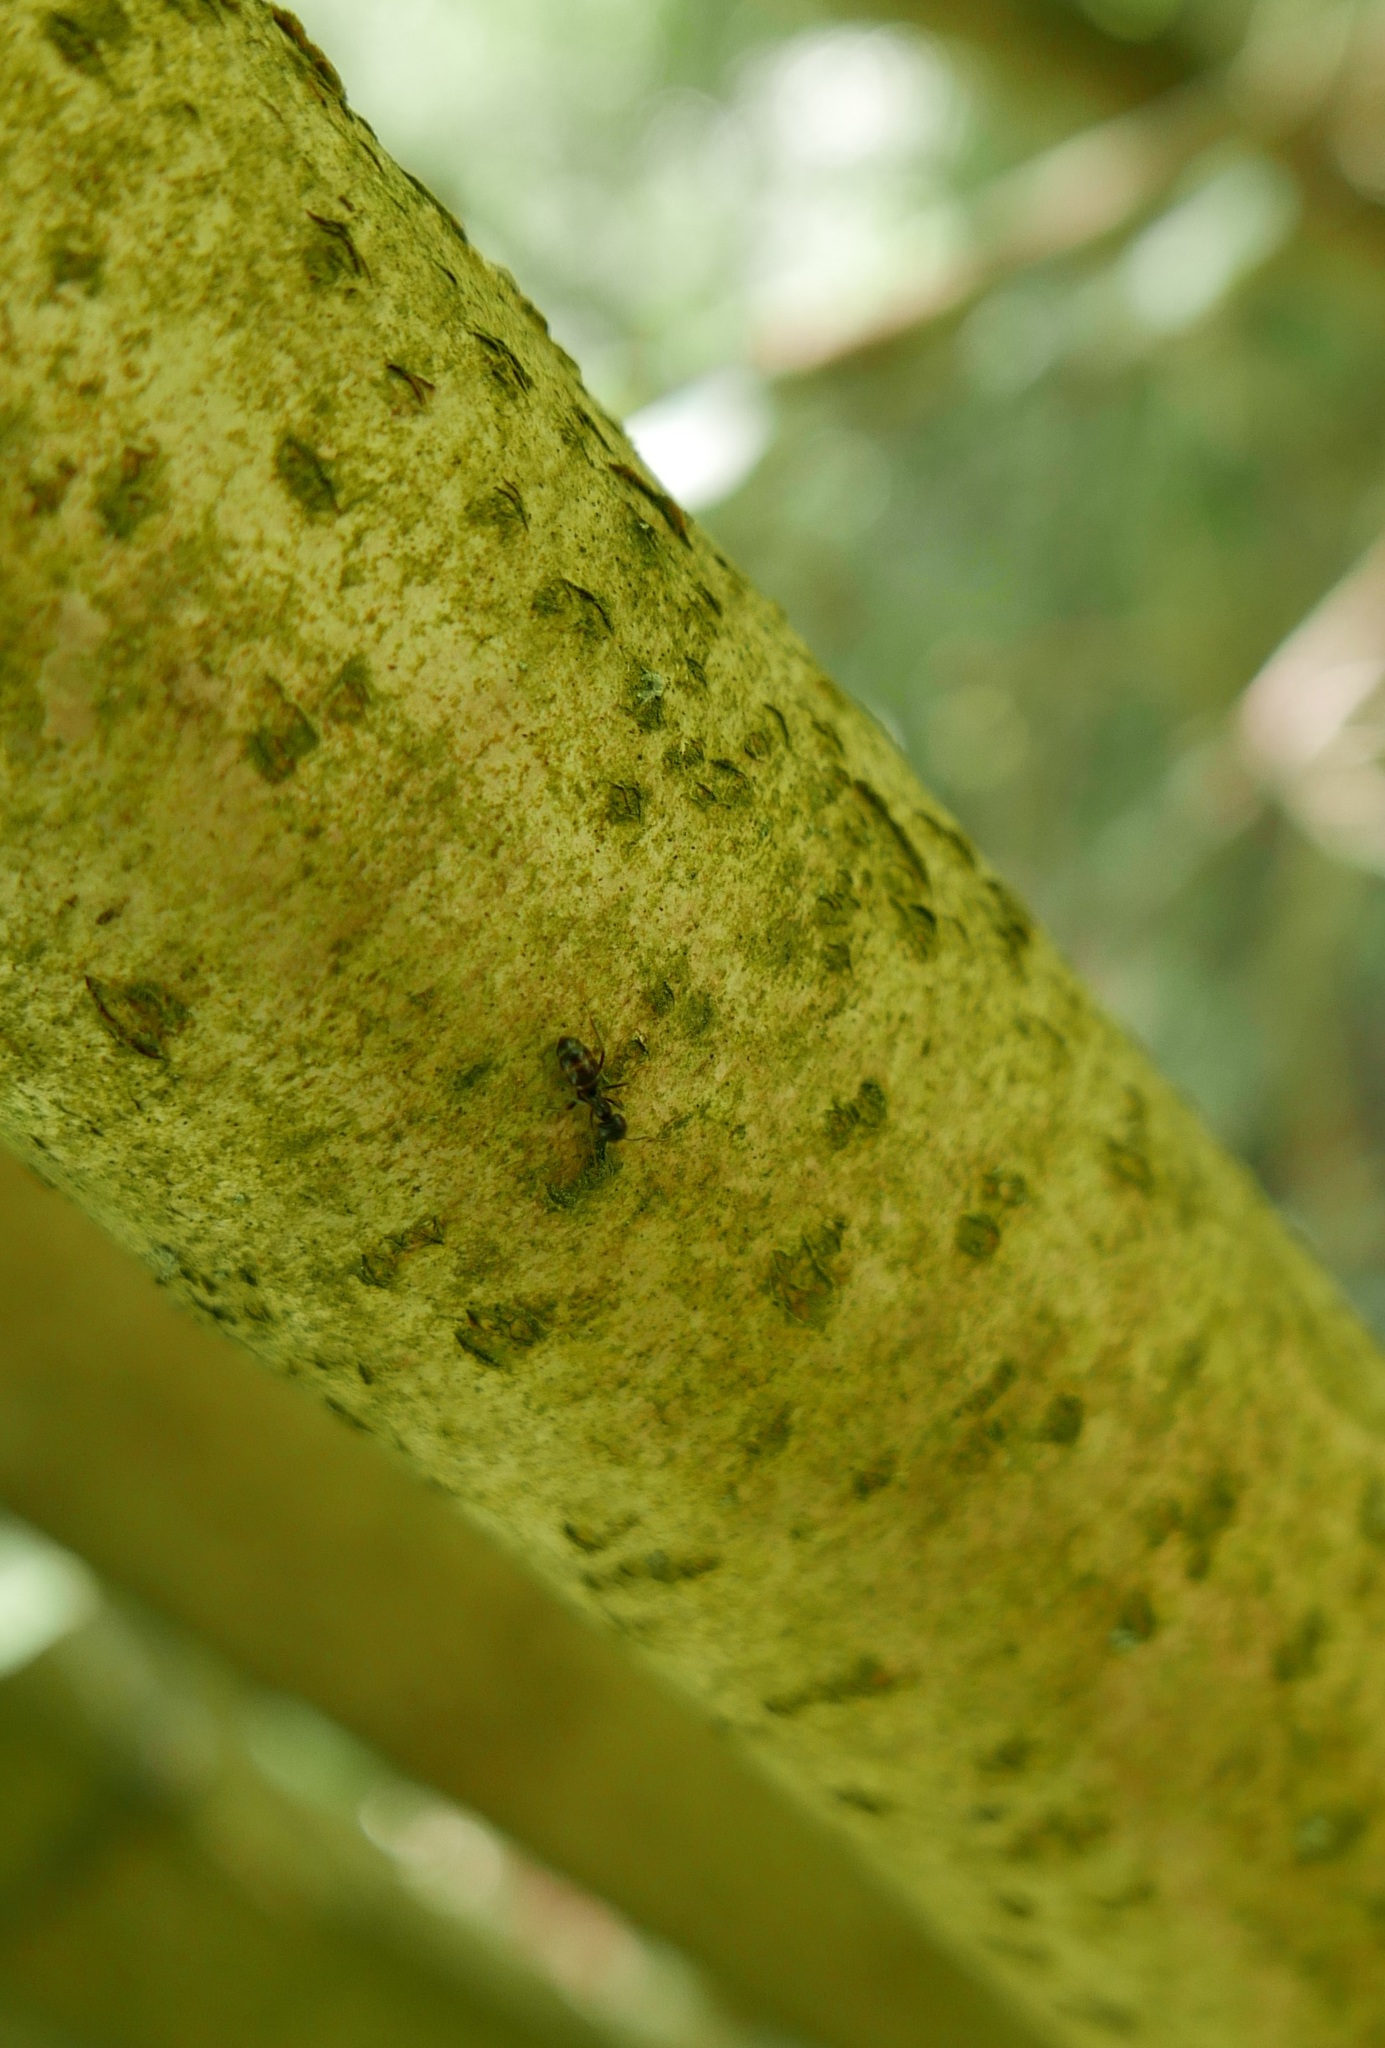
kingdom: Animalia
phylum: Arthropoda
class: Insecta
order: Hymenoptera
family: Formicidae
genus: Lasius
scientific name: Lasius fuliginosus
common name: Jet ant
